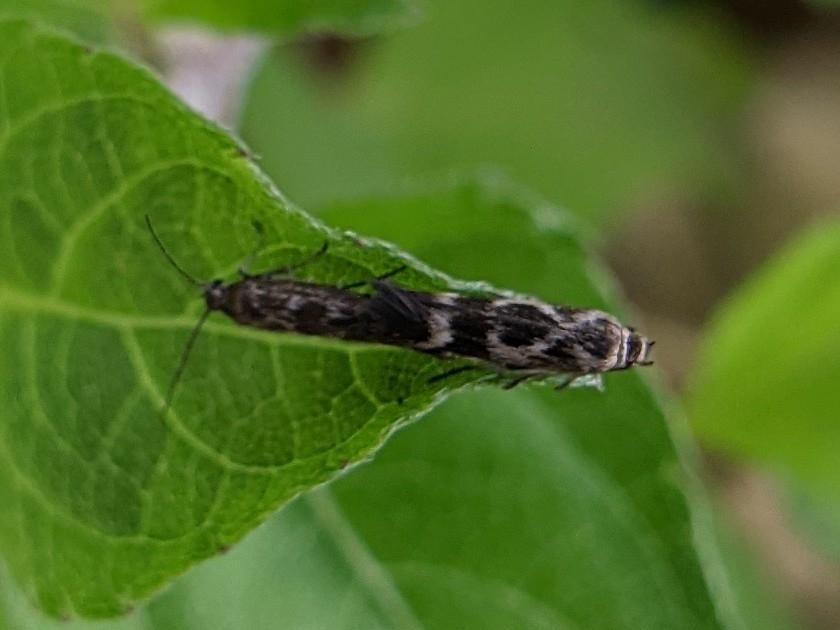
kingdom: Animalia
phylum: Arthropoda
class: Insecta
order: Lepidoptera
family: Scythrididae
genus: Scythris
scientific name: Scythris trivinctella
